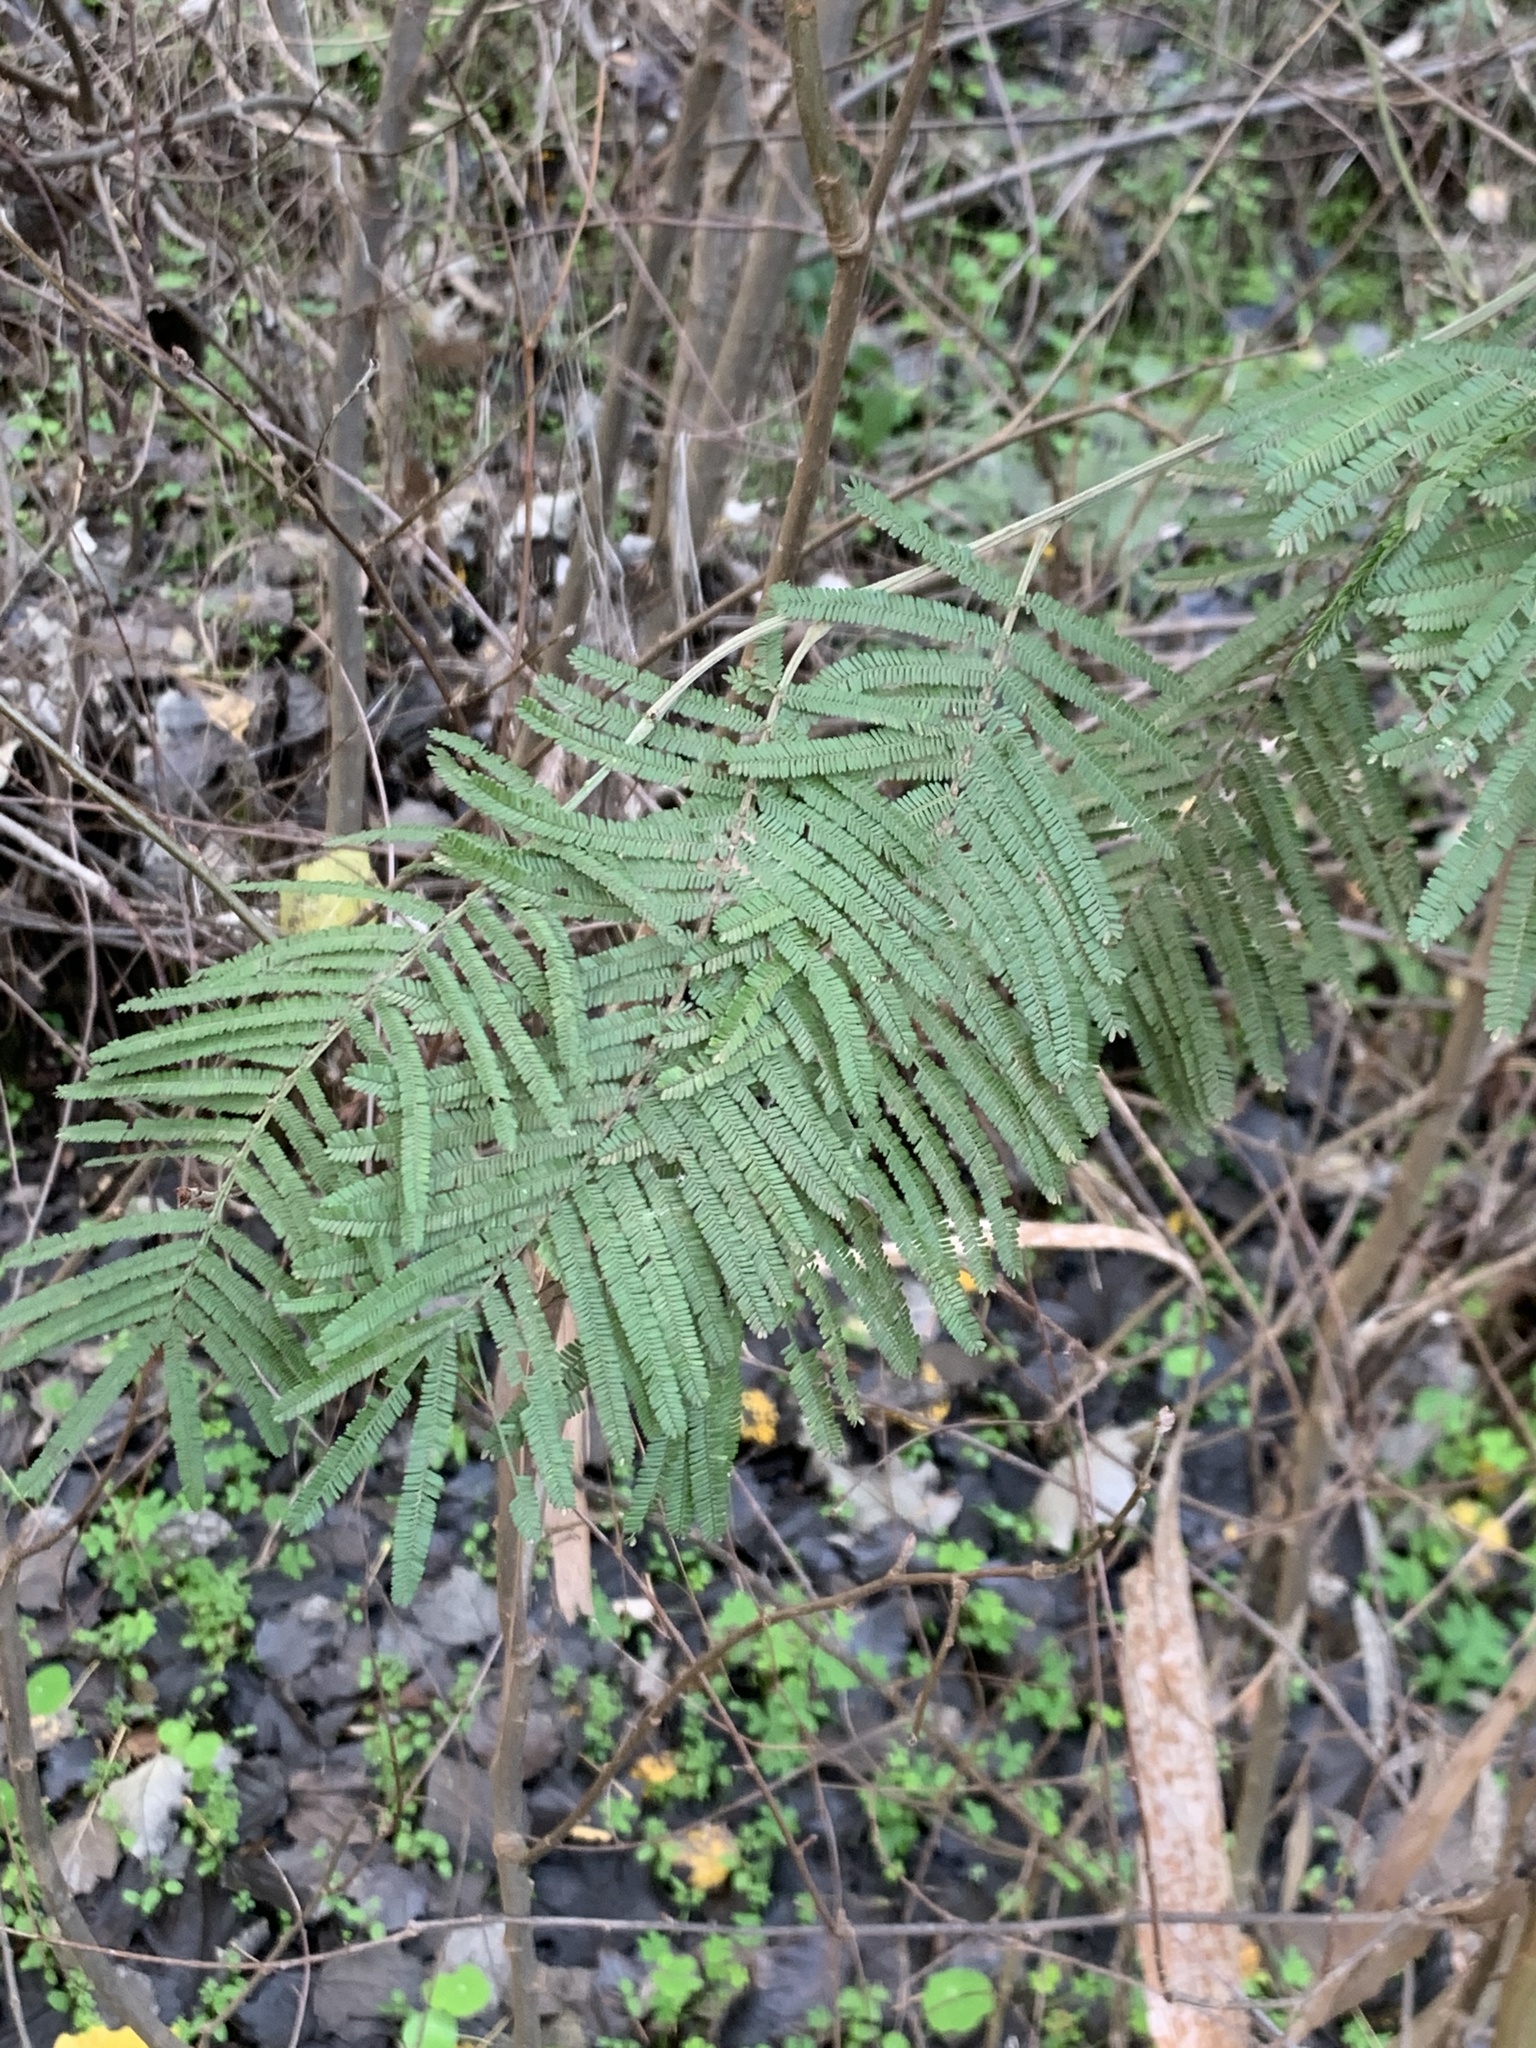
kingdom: Plantae
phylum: Tracheophyta
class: Magnoliopsida
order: Fabales
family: Fabaceae
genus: Acacia
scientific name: Acacia mearnsii
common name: Black wattle
